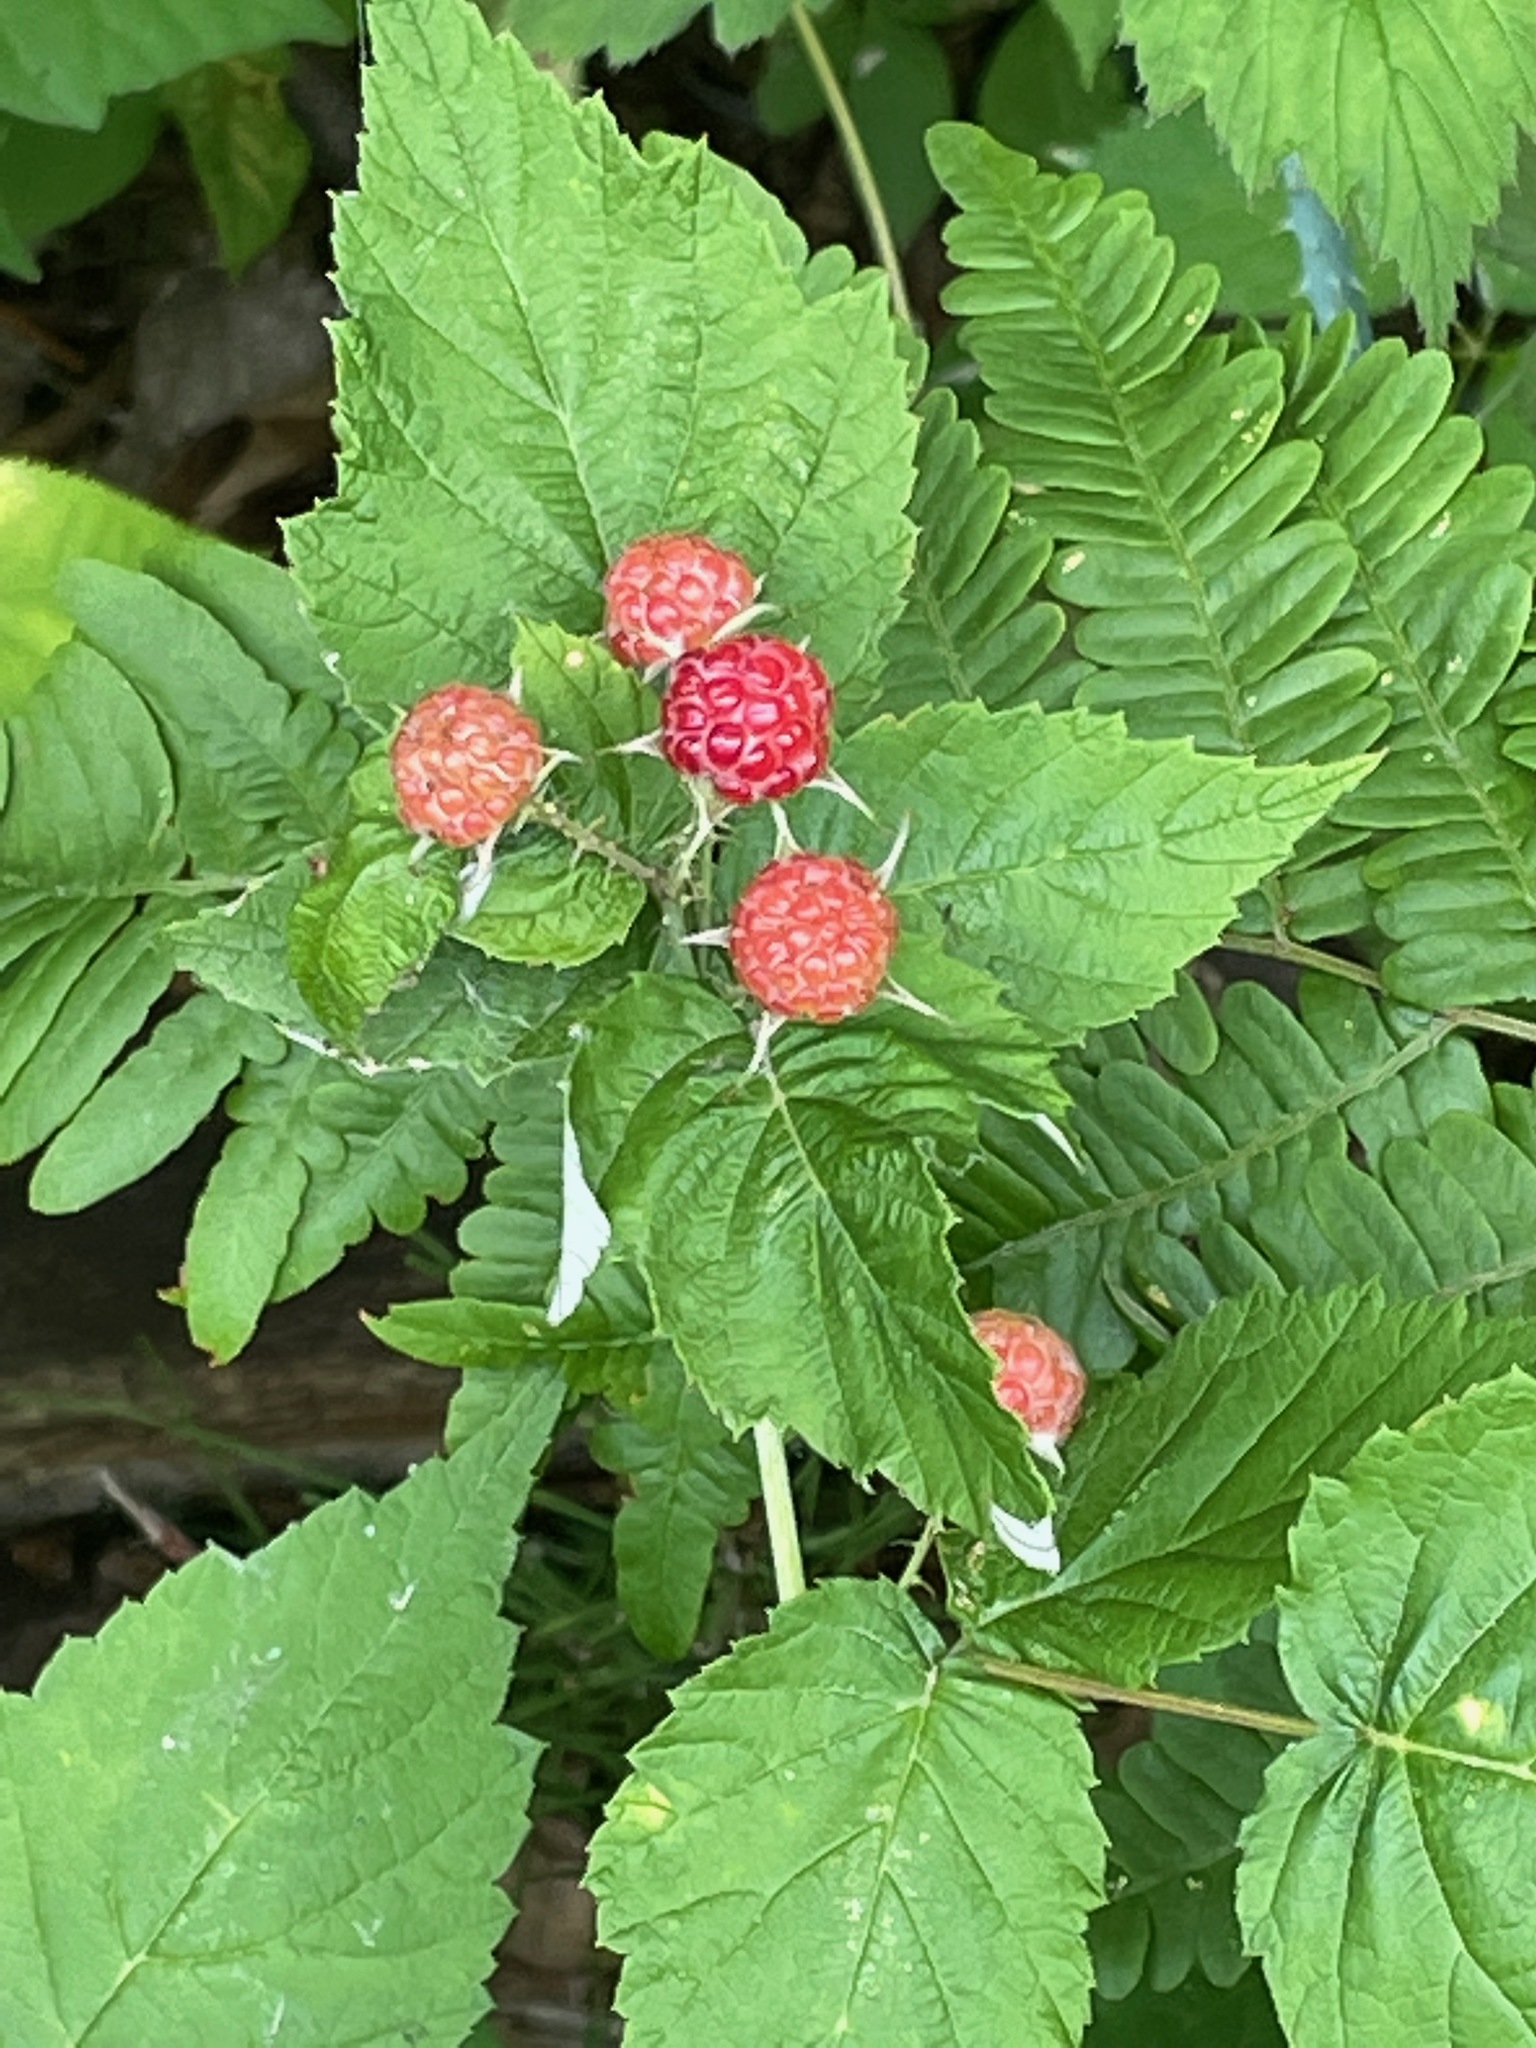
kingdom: Plantae
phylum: Tracheophyta
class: Magnoliopsida
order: Rosales
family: Rosaceae
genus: Rubus
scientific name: Rubus occidentalis
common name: Black raspberry
